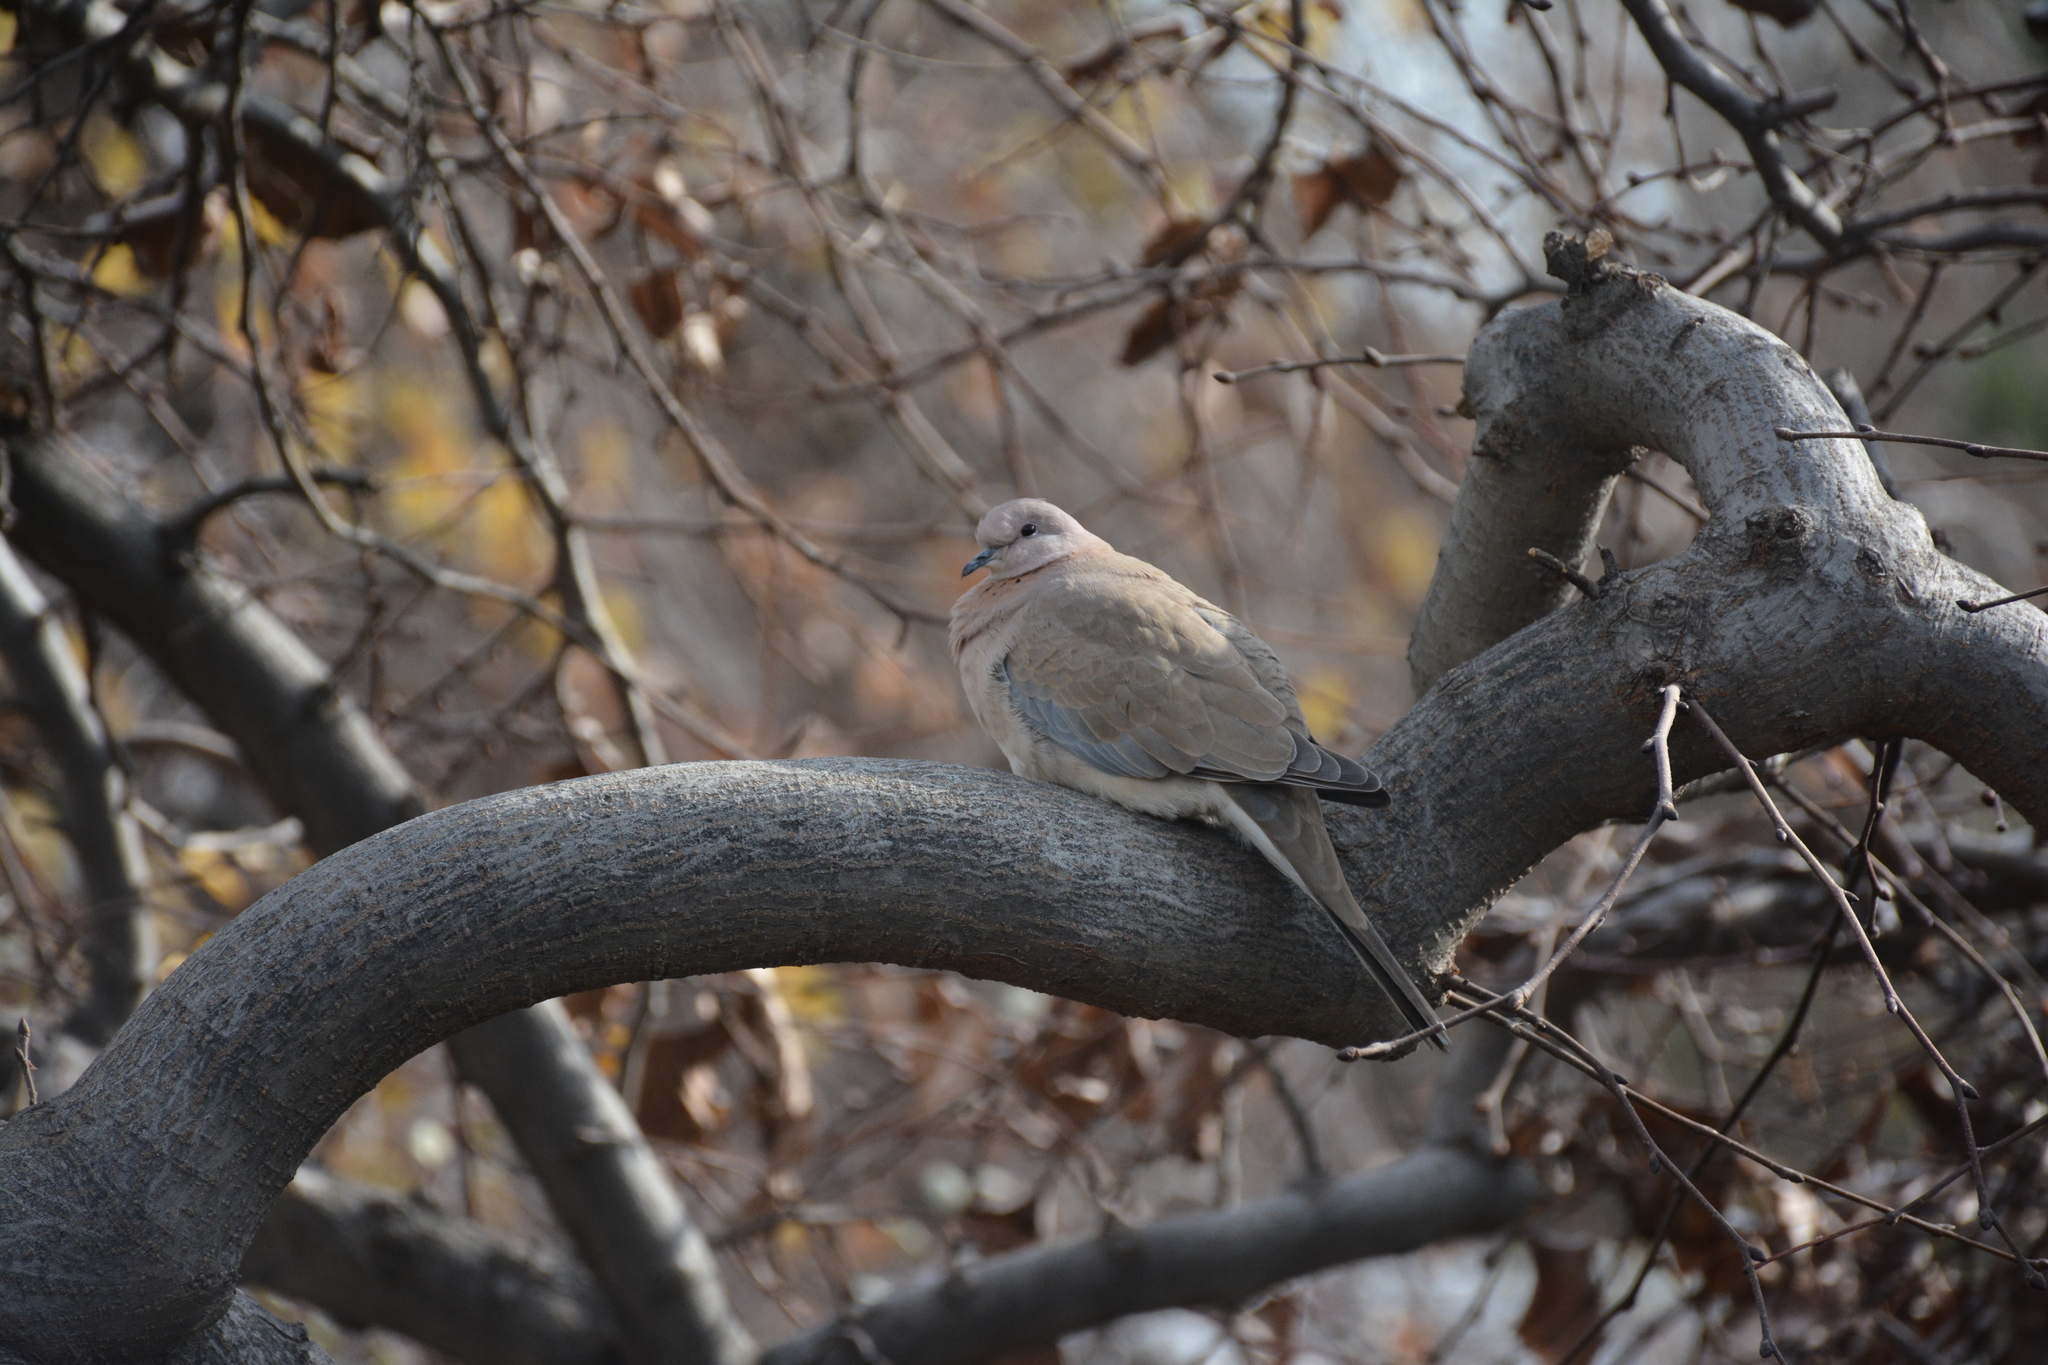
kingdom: Animalia
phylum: Chordata
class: Aves
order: Columbiformes
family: Columbidae
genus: Spilopelia
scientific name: Spilopelia senegalensis
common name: Laughing dove
